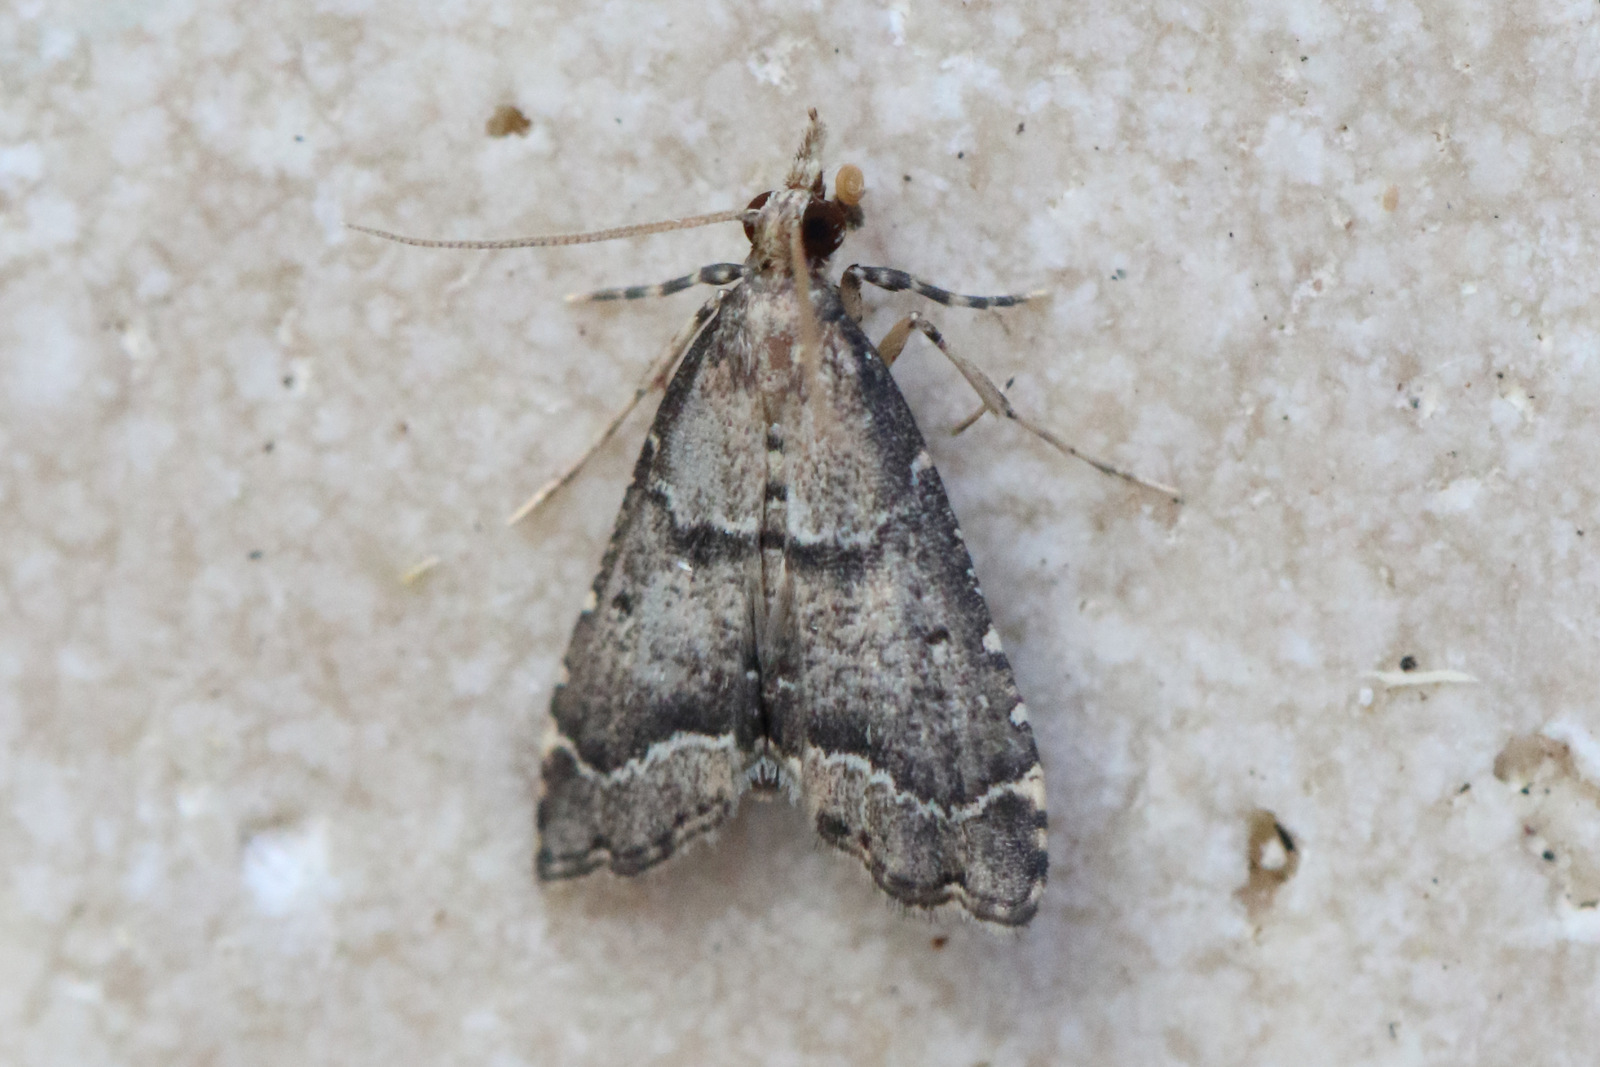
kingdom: Animalia
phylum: Arthropoda
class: Insecta
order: Lepidoptera
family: Crambidae
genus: Diplopseustis
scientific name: Diplopseustis perieresalis
